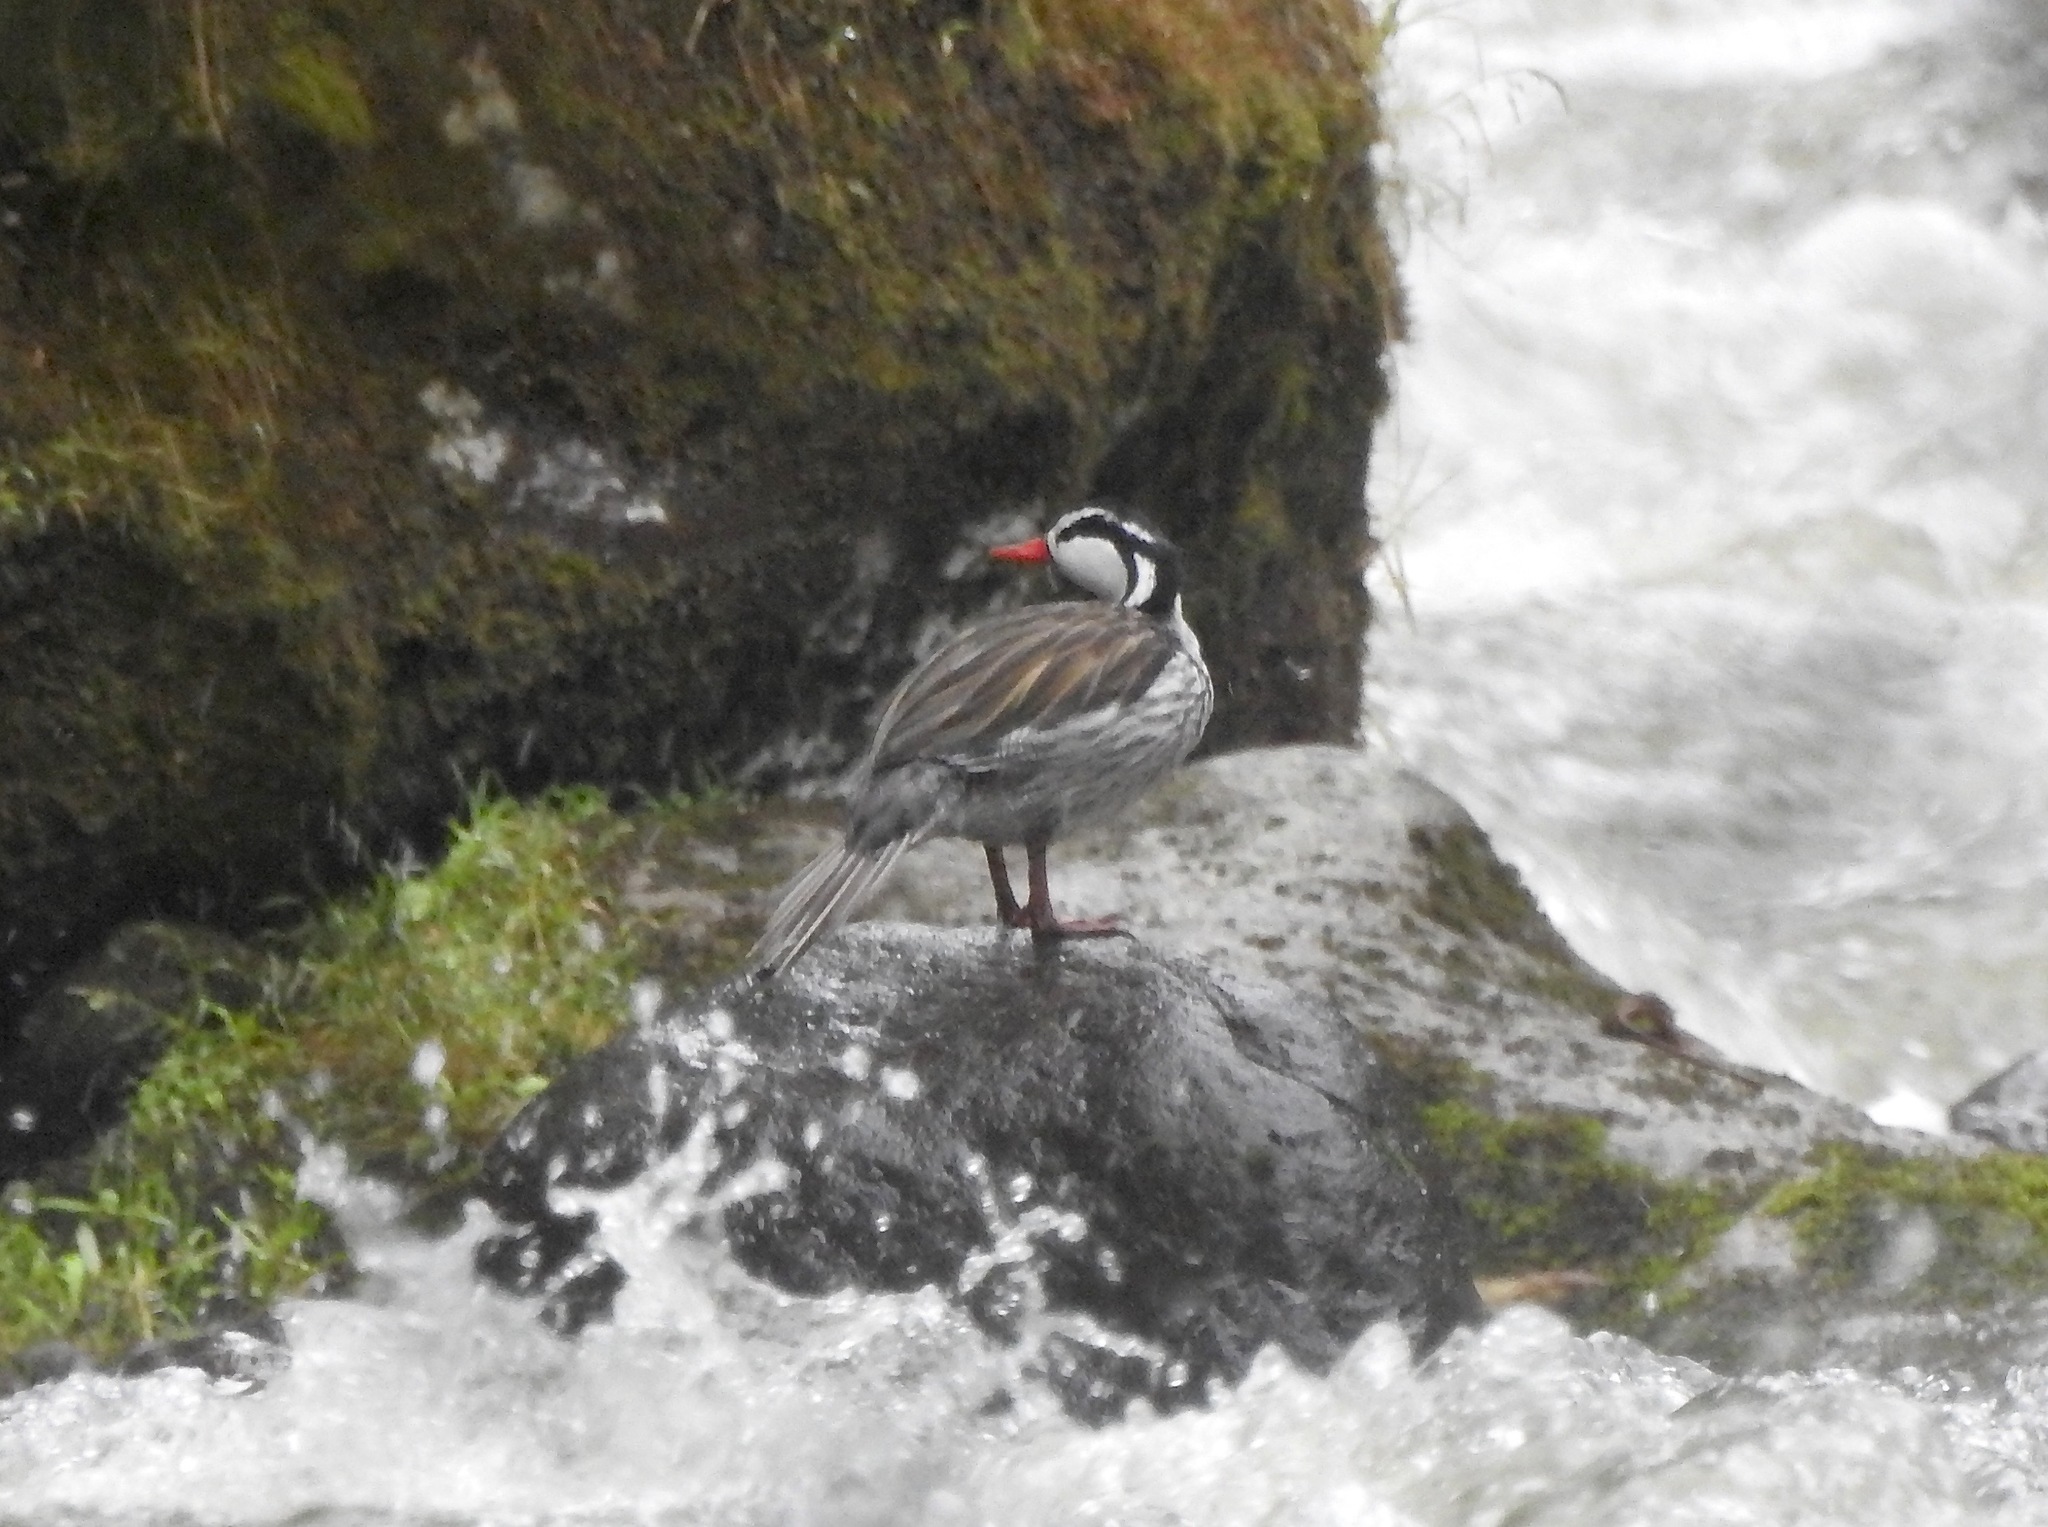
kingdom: Animalia
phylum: Chordata
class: Aves
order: Anseriformes
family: Anatidae
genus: Merganetta
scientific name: Merganetta armata
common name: Torrent duck
